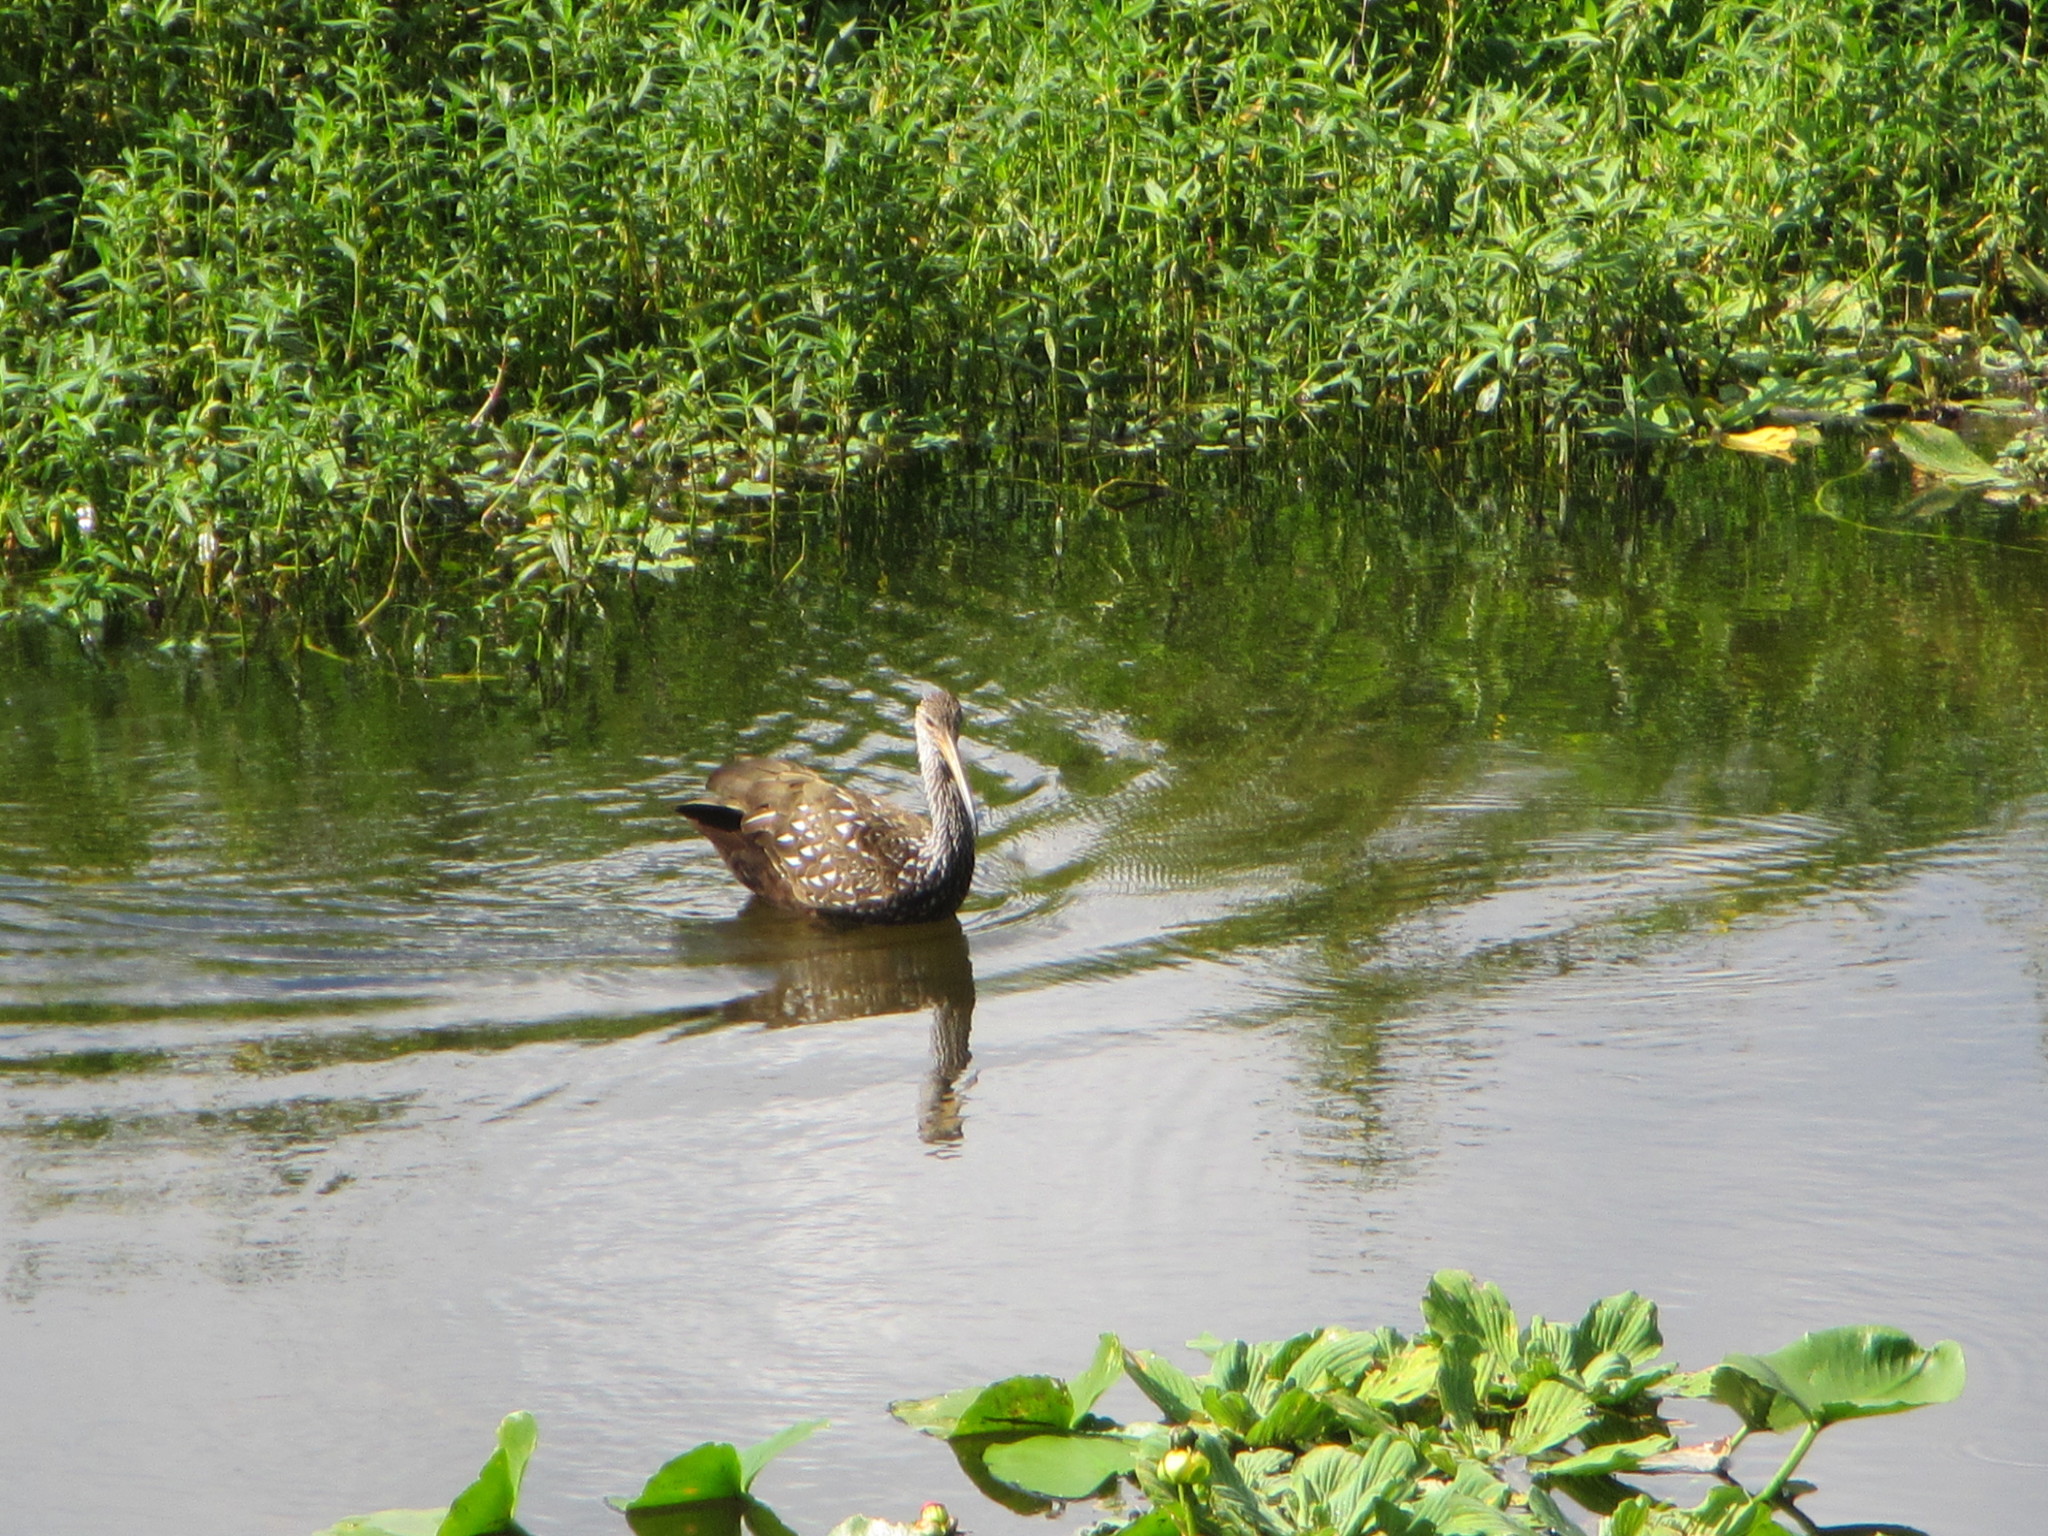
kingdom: Animalia
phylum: Chordata
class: Aves
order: Gruiformes
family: Aramidae
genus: Aramus
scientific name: Aramus guarauna
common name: Limpkin
